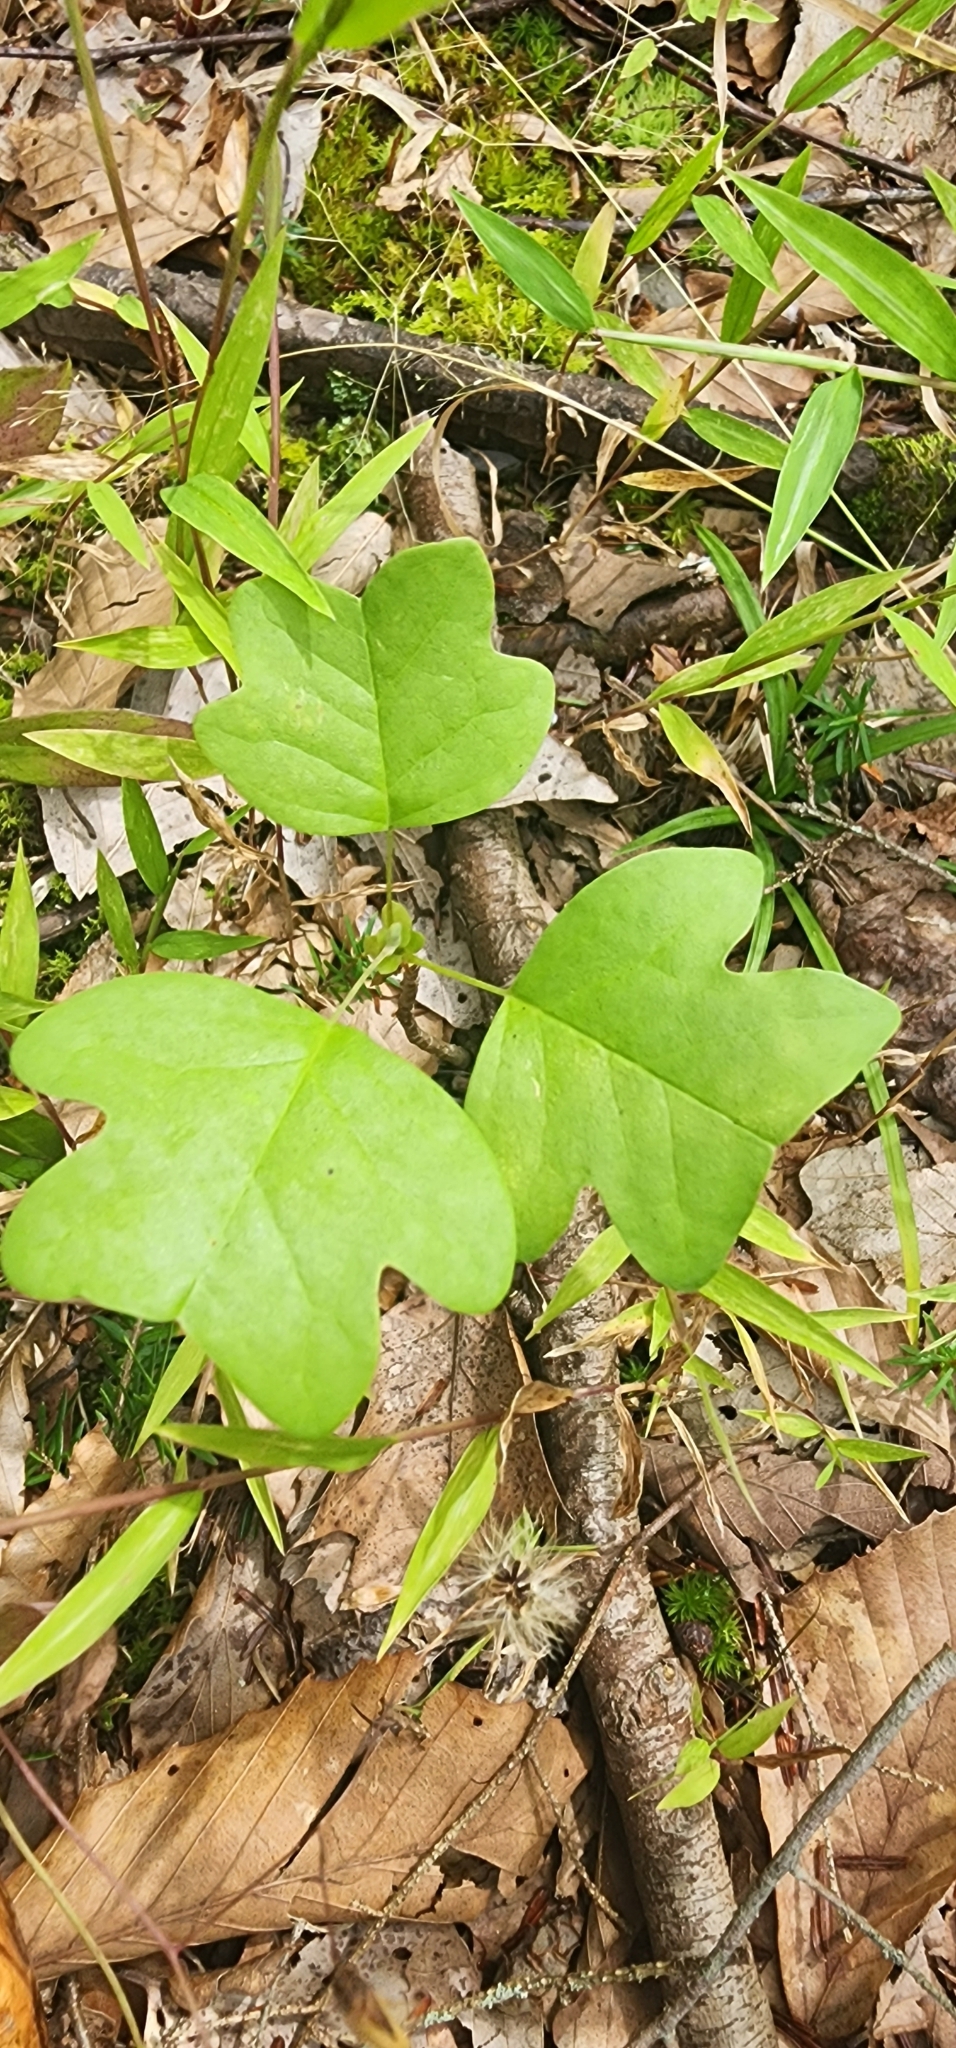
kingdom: Plantae
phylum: Tracheophyta
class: Magnoliopsida
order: Magnoliales
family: Magnoliaceae
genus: Liriodendron
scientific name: Liriodendron tulipifera
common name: Tulip tree
